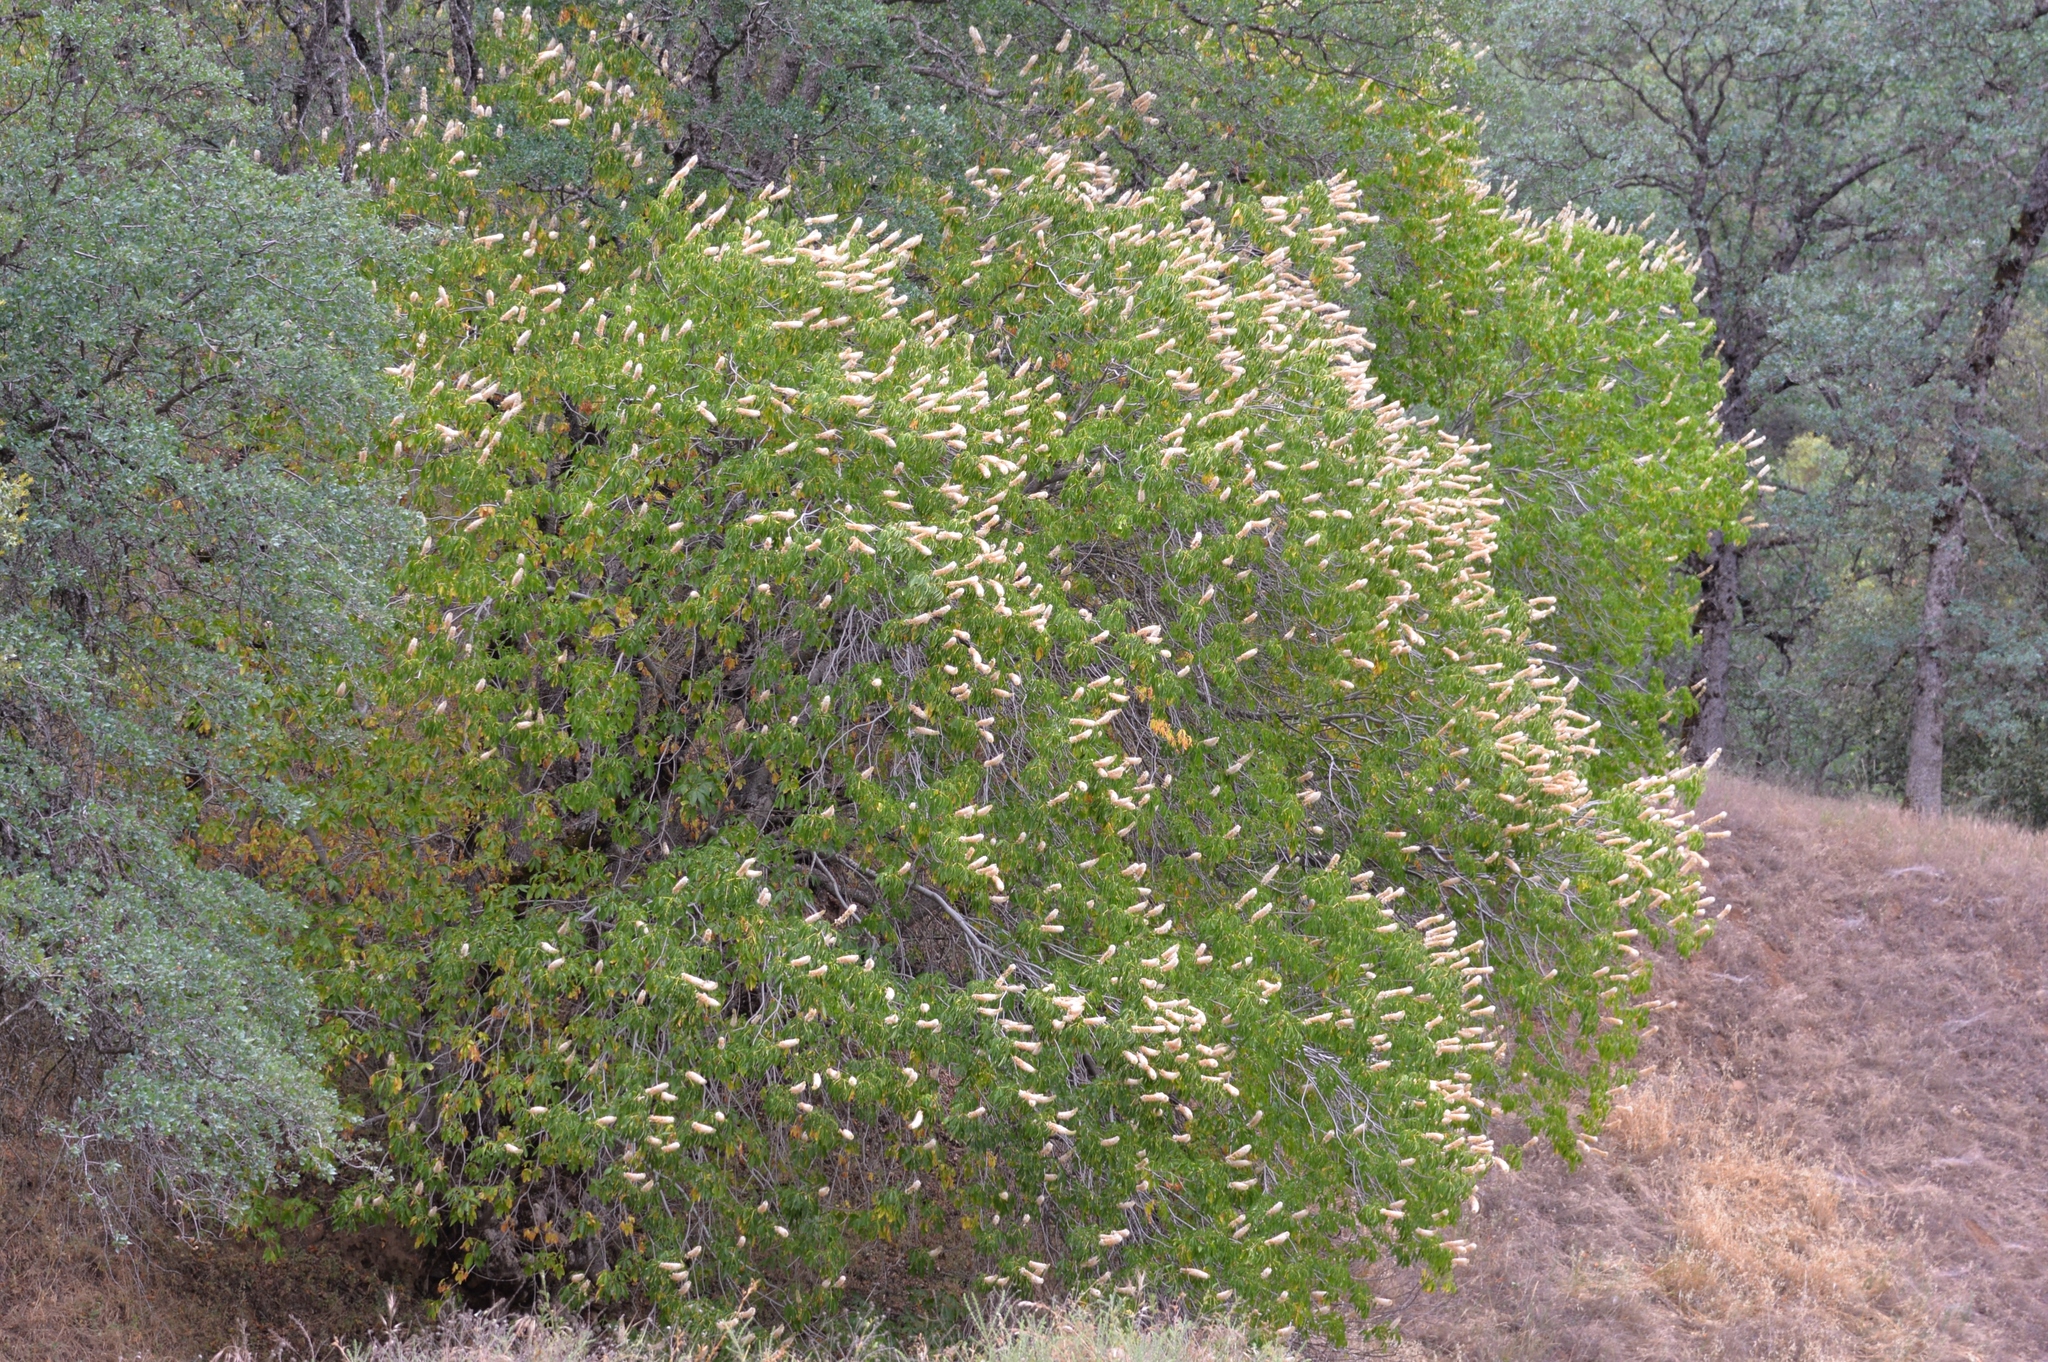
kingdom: Plantae
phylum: Tracheophyta
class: Magnoliopsida
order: Sapindales
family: Sapindaceae
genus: Aesculus
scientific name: Aesculus californica
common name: California buckeye
